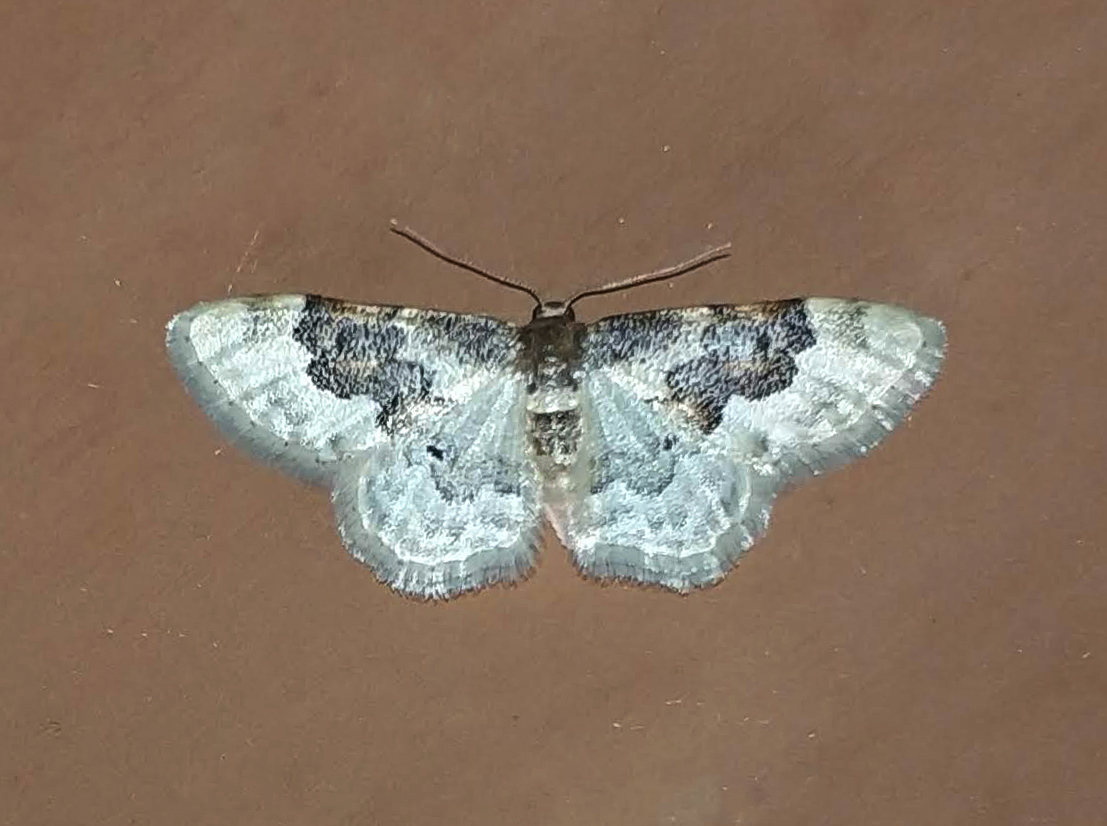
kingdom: Animalia
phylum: Arthropoda
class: Insecta
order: Lepidoptera
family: Geometridae
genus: Idaea
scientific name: Idaea rusticata
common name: Least carpet
